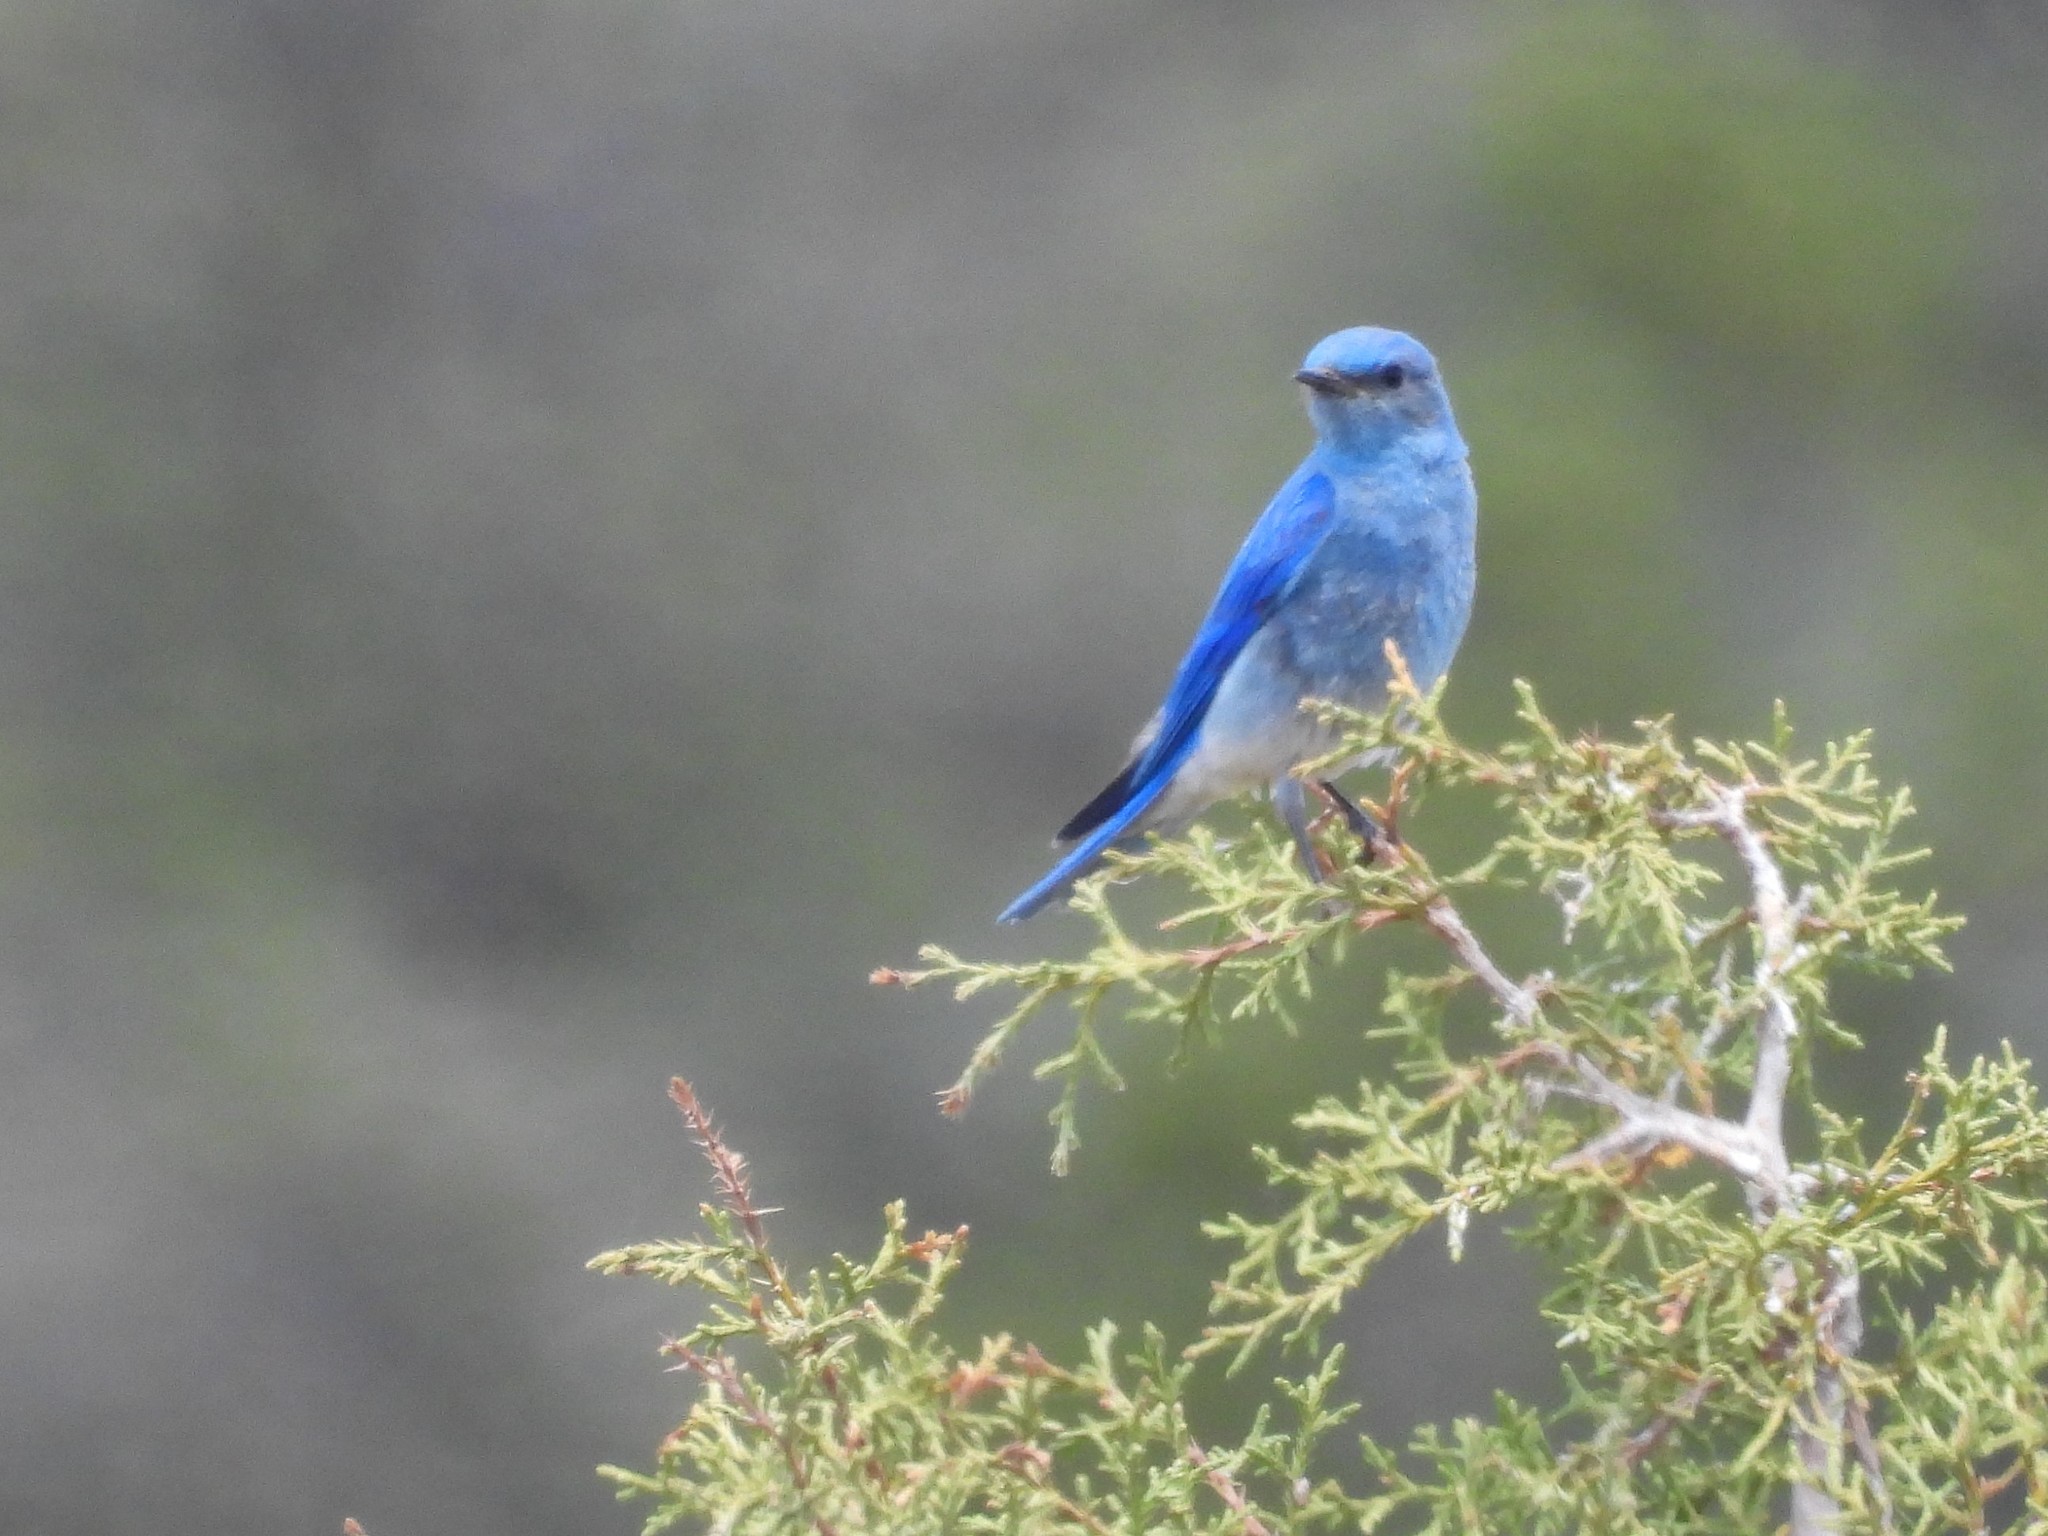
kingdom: Animalia
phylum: Chordata
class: Aves
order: Passeriformes
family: Turdidae
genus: Sialia
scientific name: Sialia currucoides
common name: Mountain bluebird
